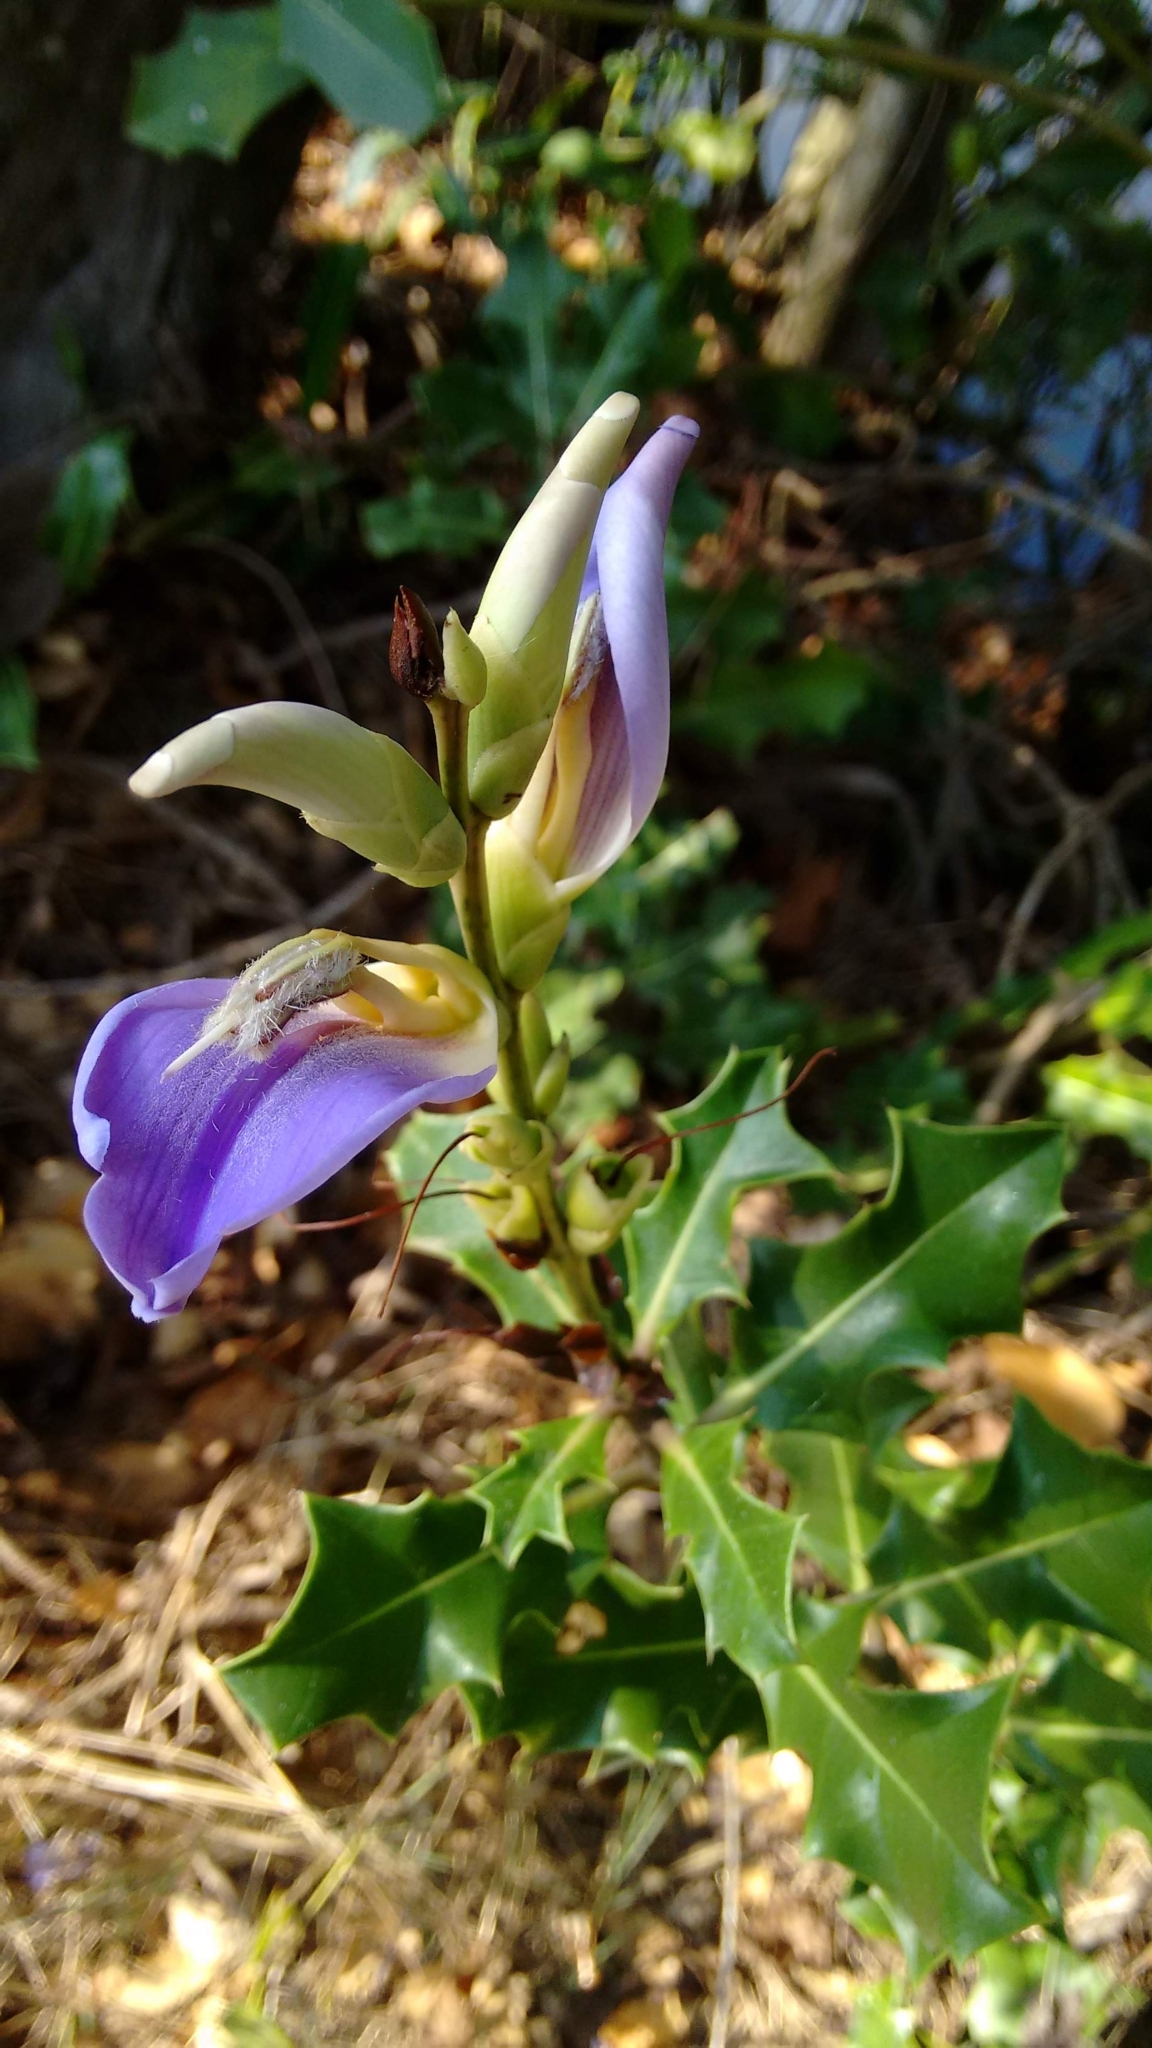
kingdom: Plantae
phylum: Tracheophyta
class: Magnoliopsida
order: Lamiales
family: Acanthaceae
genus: Acanthus
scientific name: Acanthus ilicifolius
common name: Holy mangrove
